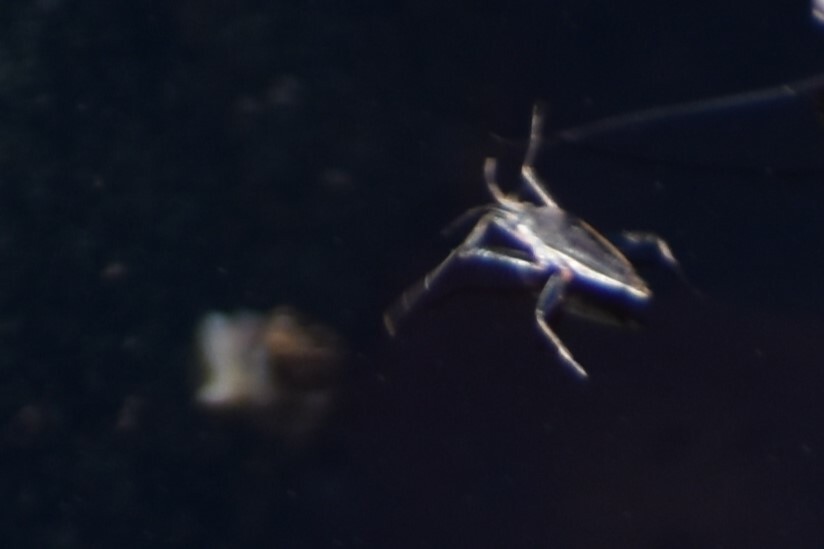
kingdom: Animalia
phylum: Arthropoda
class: Insecta
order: Hemiptera
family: Veliidae
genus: Rhagovelia
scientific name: Rhagovelia
